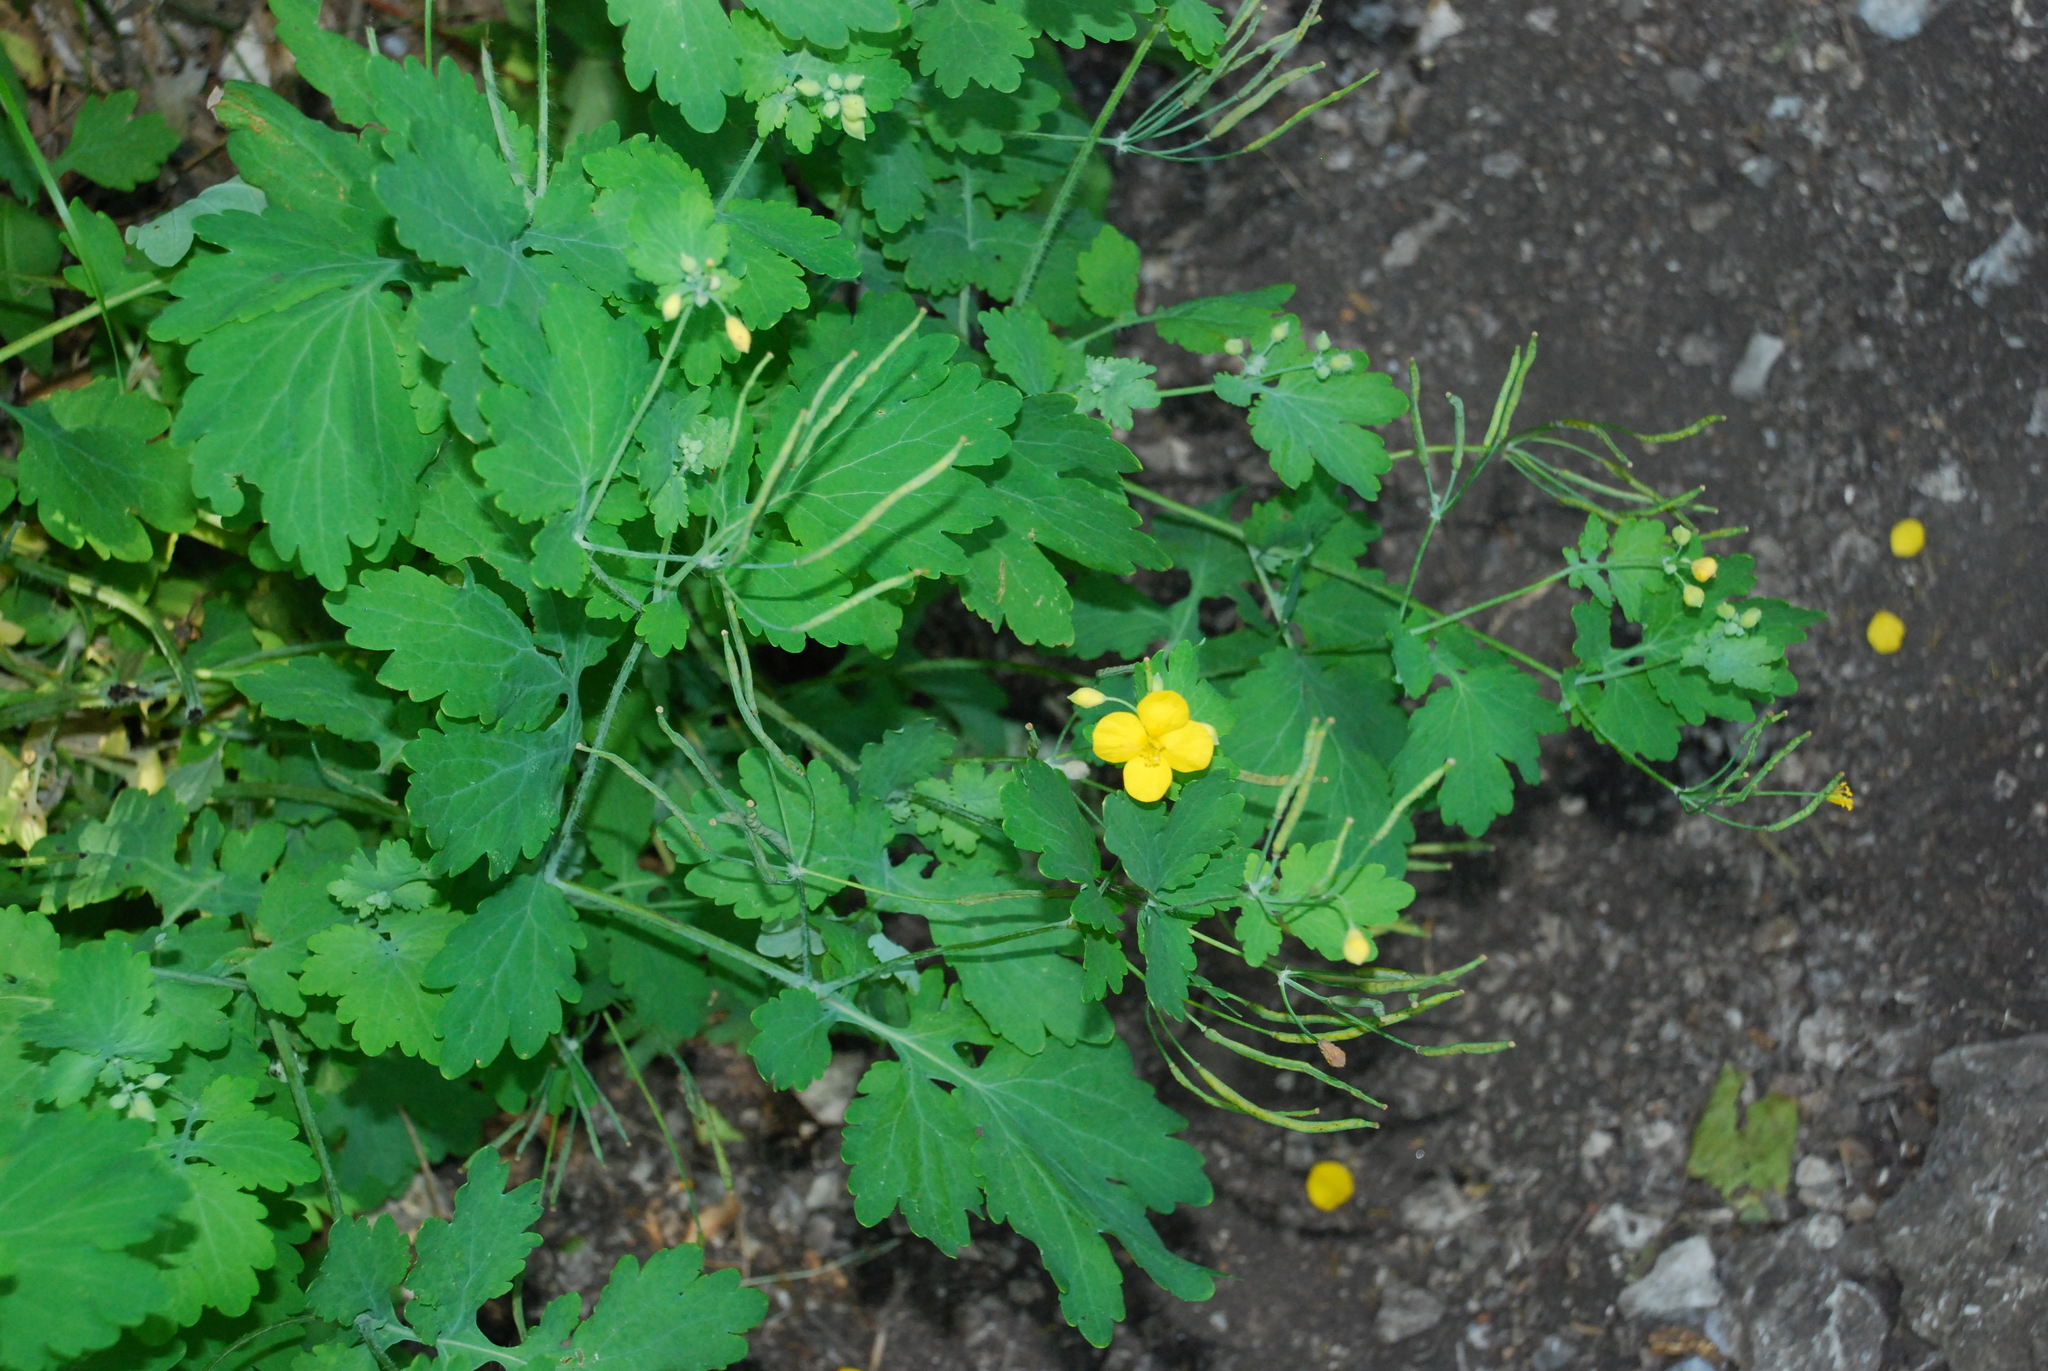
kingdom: Plantae
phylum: Tracheophyta
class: Magnoliopsida
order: Ranunculales
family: Papaveraceae
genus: Chelidonium
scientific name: Chelidonium majus
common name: Greater celandine
